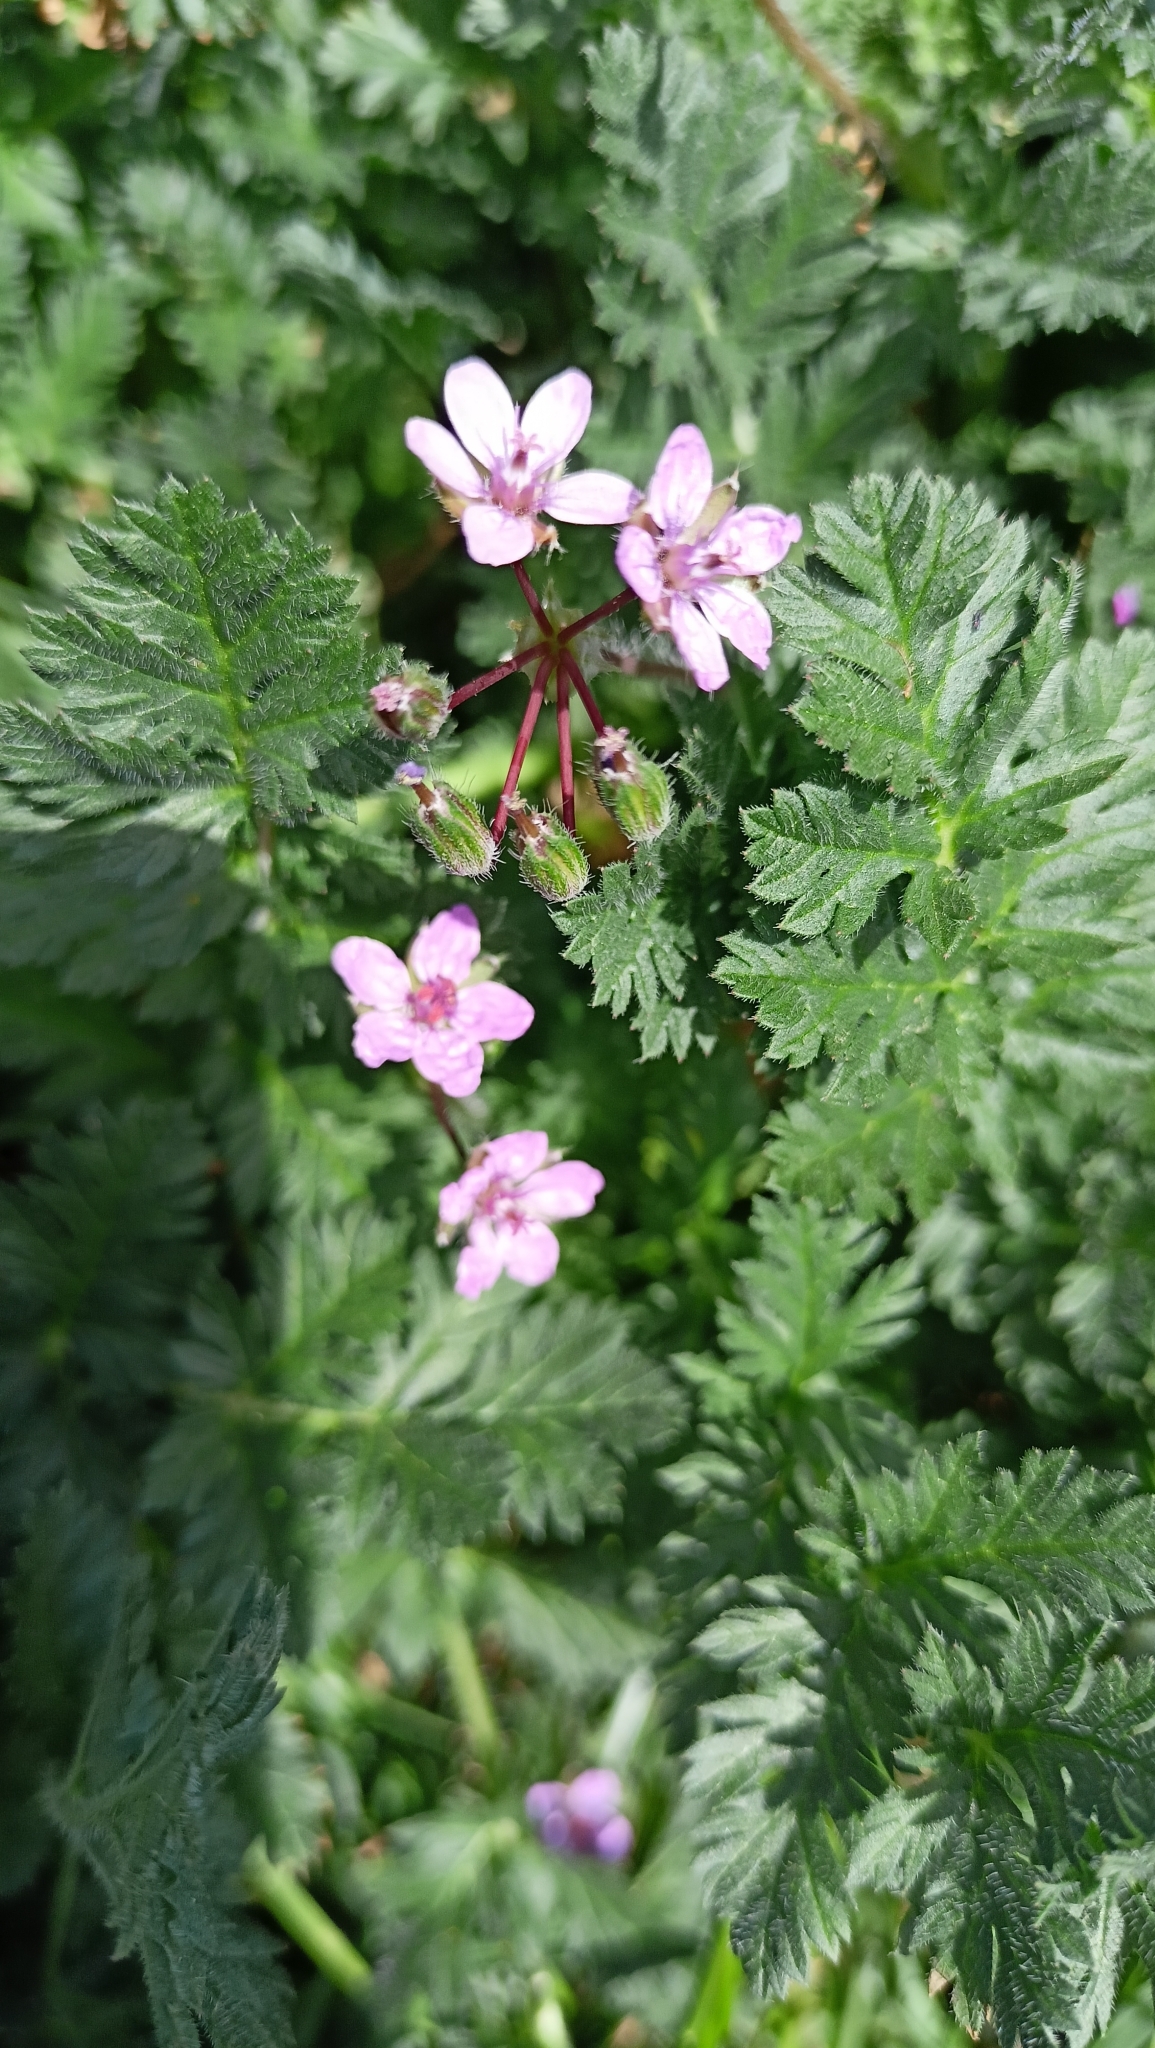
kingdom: Plantae
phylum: Tracheophyta
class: Magnoliopsida
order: Geraniales
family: Geraniaceae
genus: Erodium
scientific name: Erodium cicutarium
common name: Common stork's-bill
